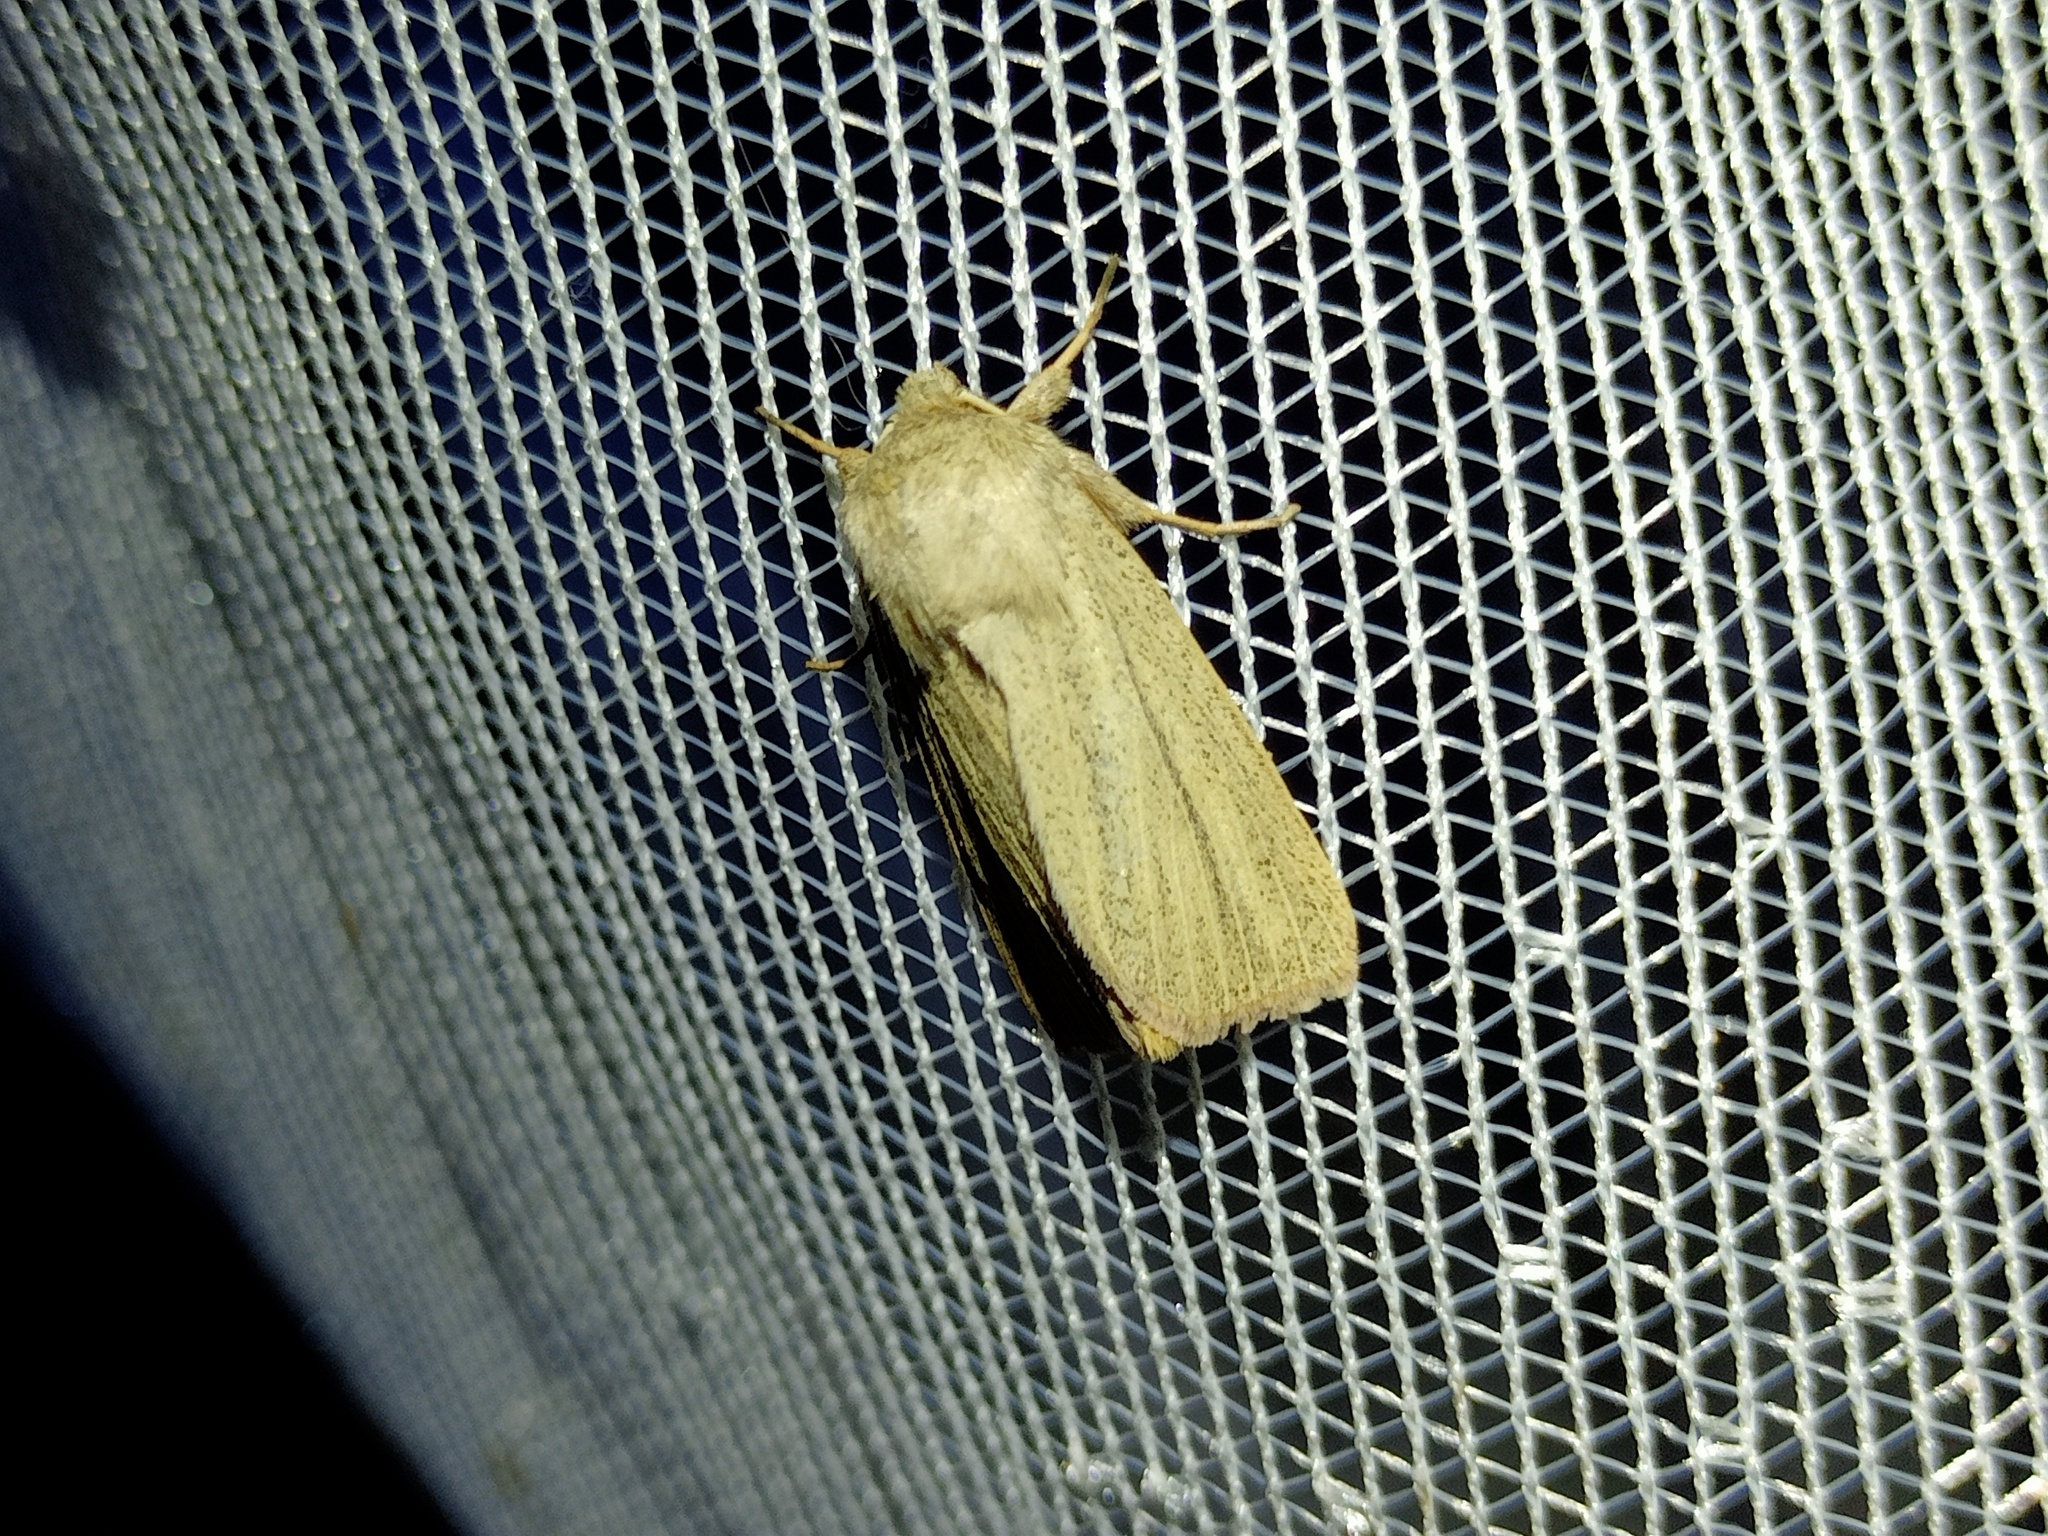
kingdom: Animalia
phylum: Arthropoda
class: Insecta
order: Lepidoptera
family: Noctuidae
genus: Mythimna
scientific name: Mythimna pudorina
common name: Striped wainscot
